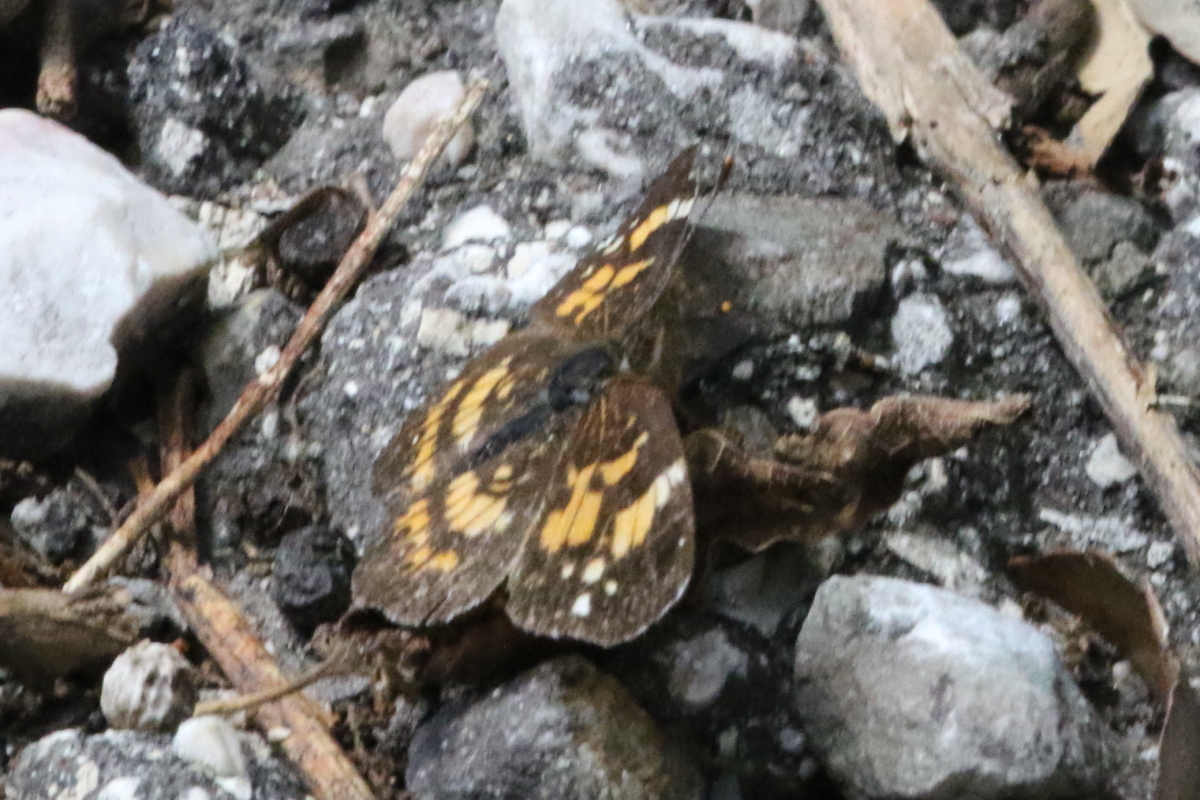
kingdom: Animalia
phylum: Arthropoda
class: Insecta
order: Lepidoptera
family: Nymphalidae
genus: Chlosyne
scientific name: Chlosyne nycteis
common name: Silvery checkerspot
